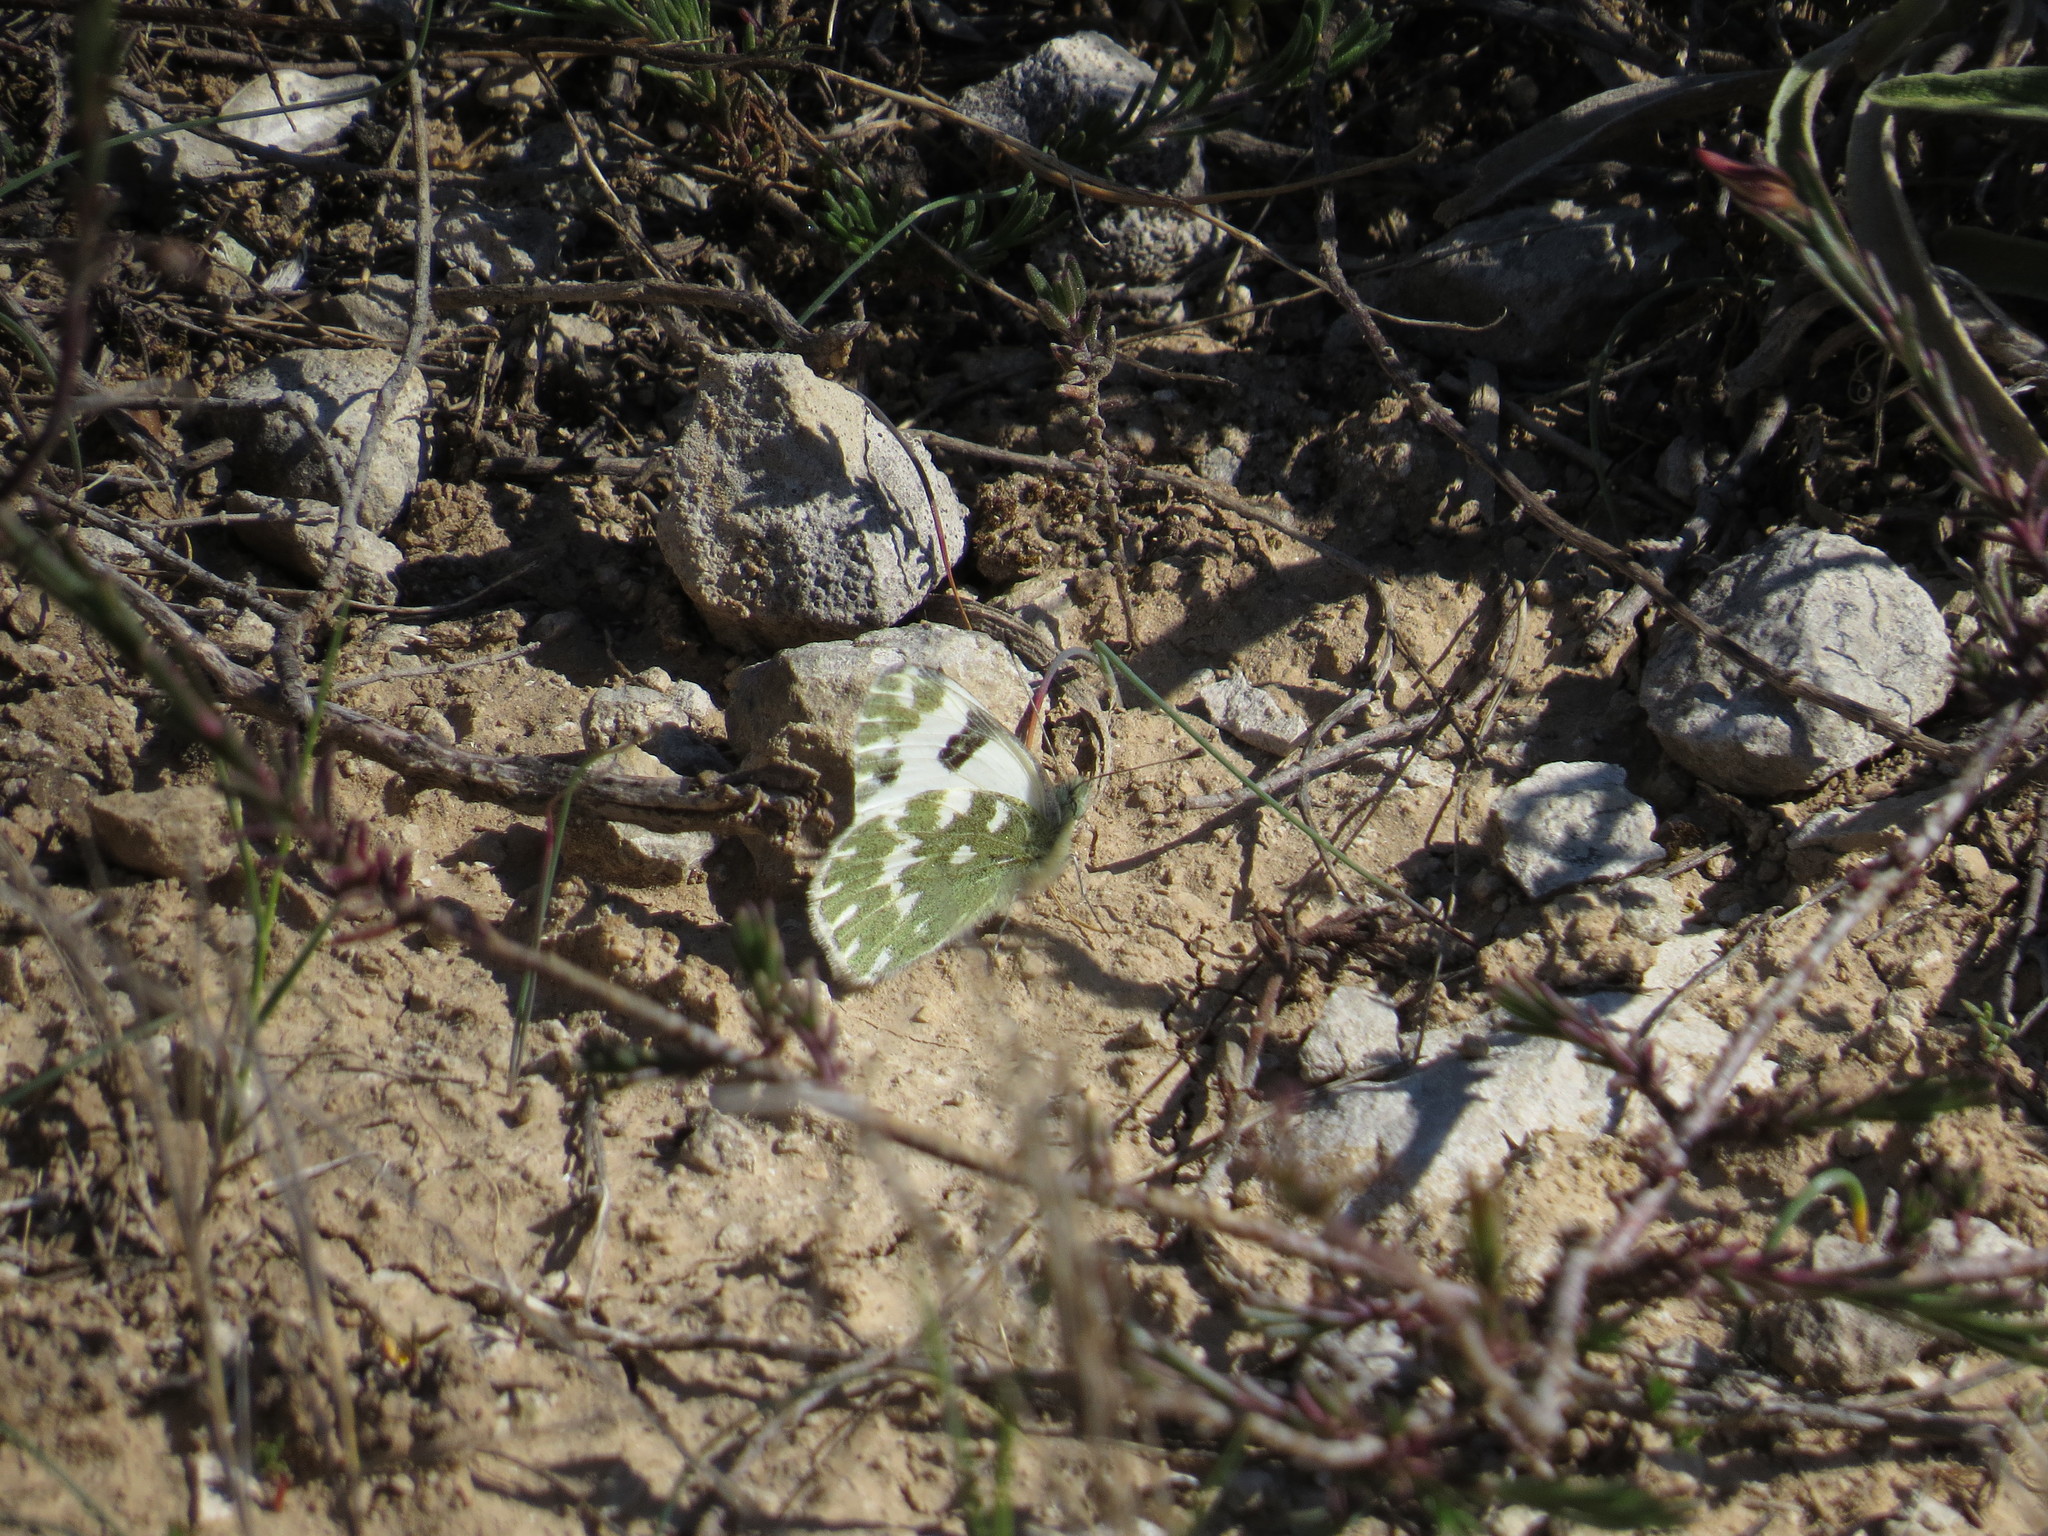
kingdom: Animalia
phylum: Arthropoda
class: Insecta
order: Lepidoptera
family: Pieridae
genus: Pontia
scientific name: Pontia daplidice
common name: Bath white
